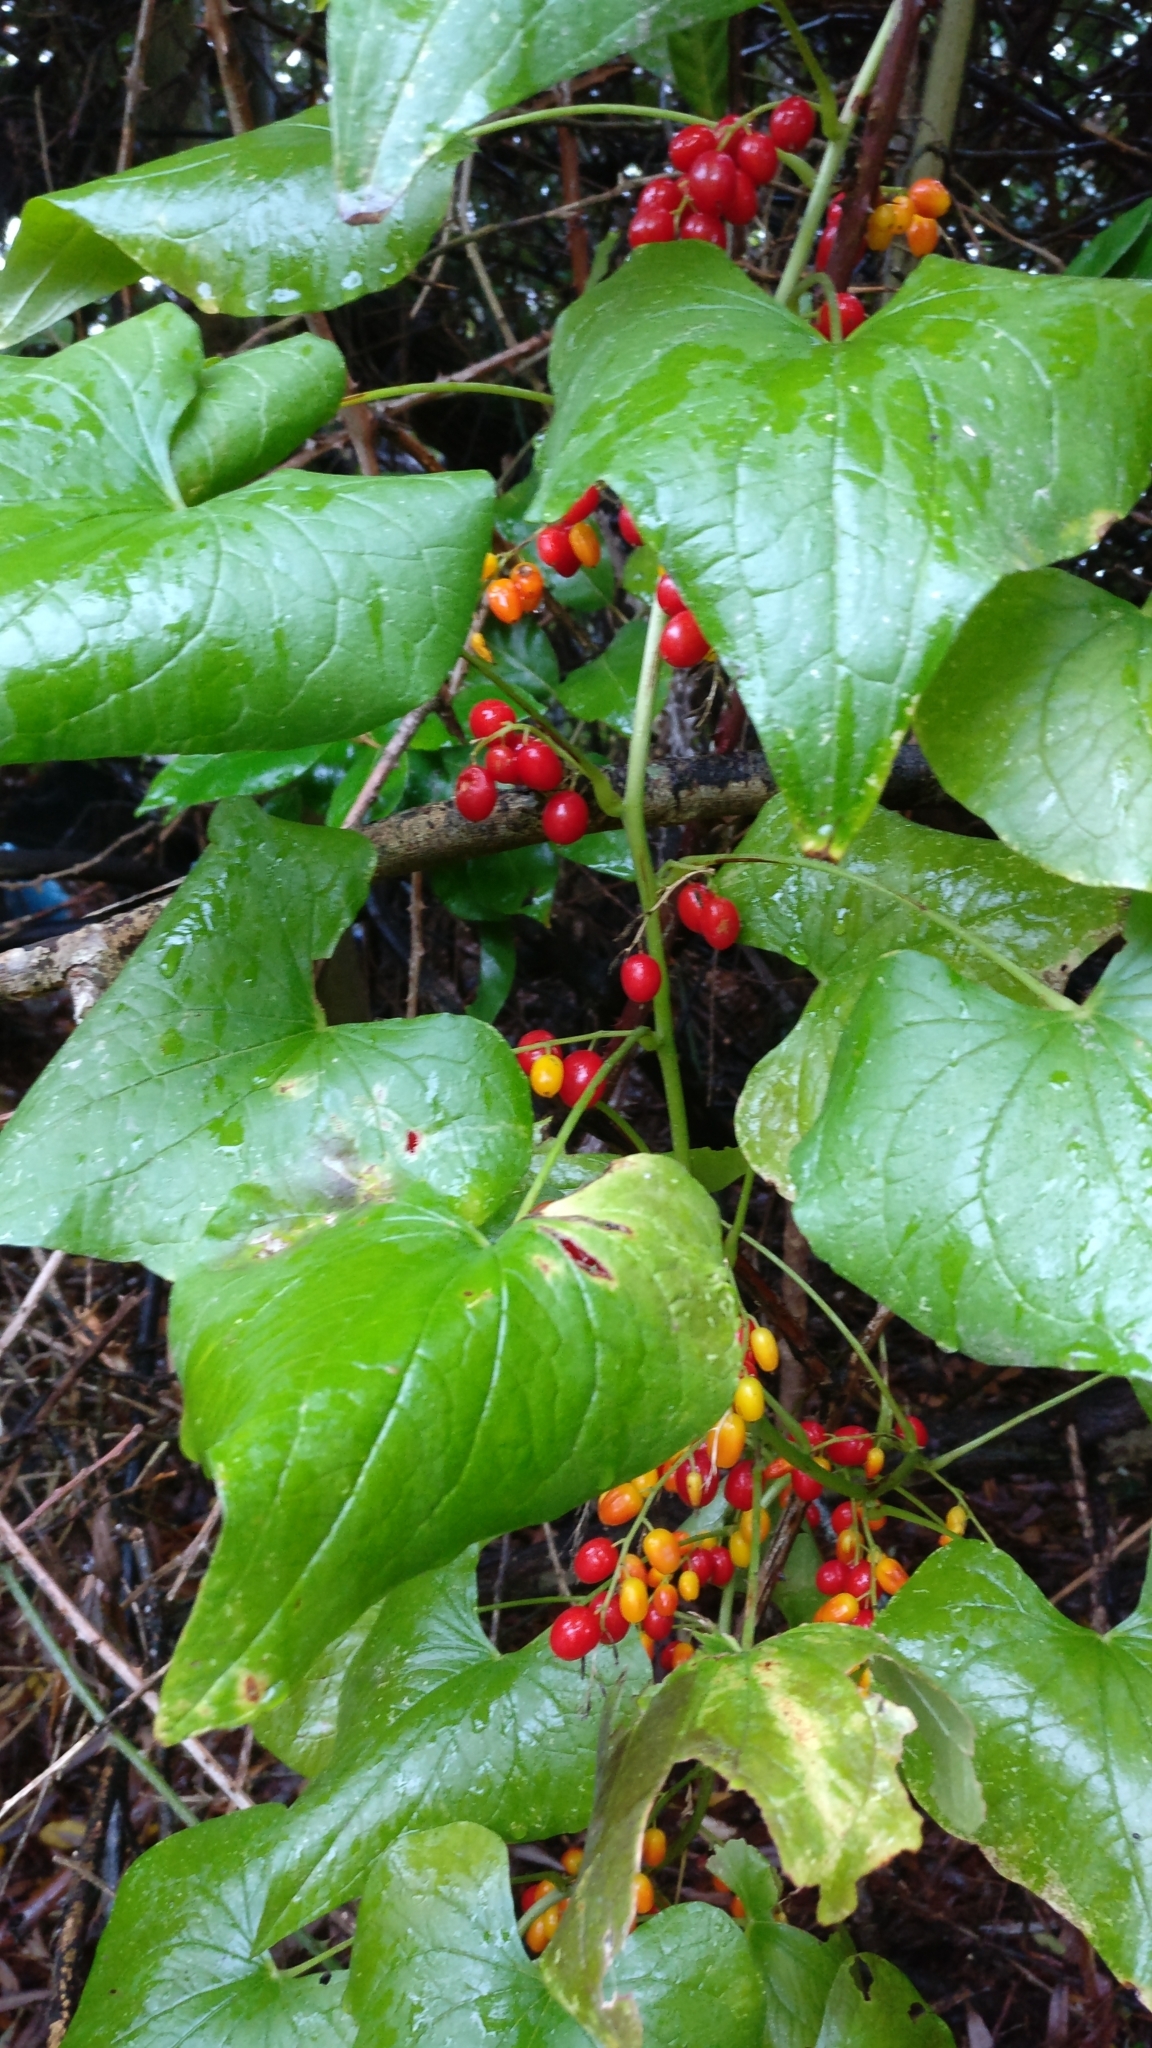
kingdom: Plantae
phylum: Tracheophyta
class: Liliopsida
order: Dioscoreales
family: Dioscoreaceae
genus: Dioscorea
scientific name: Dioscorea communis
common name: Black-bindweed
